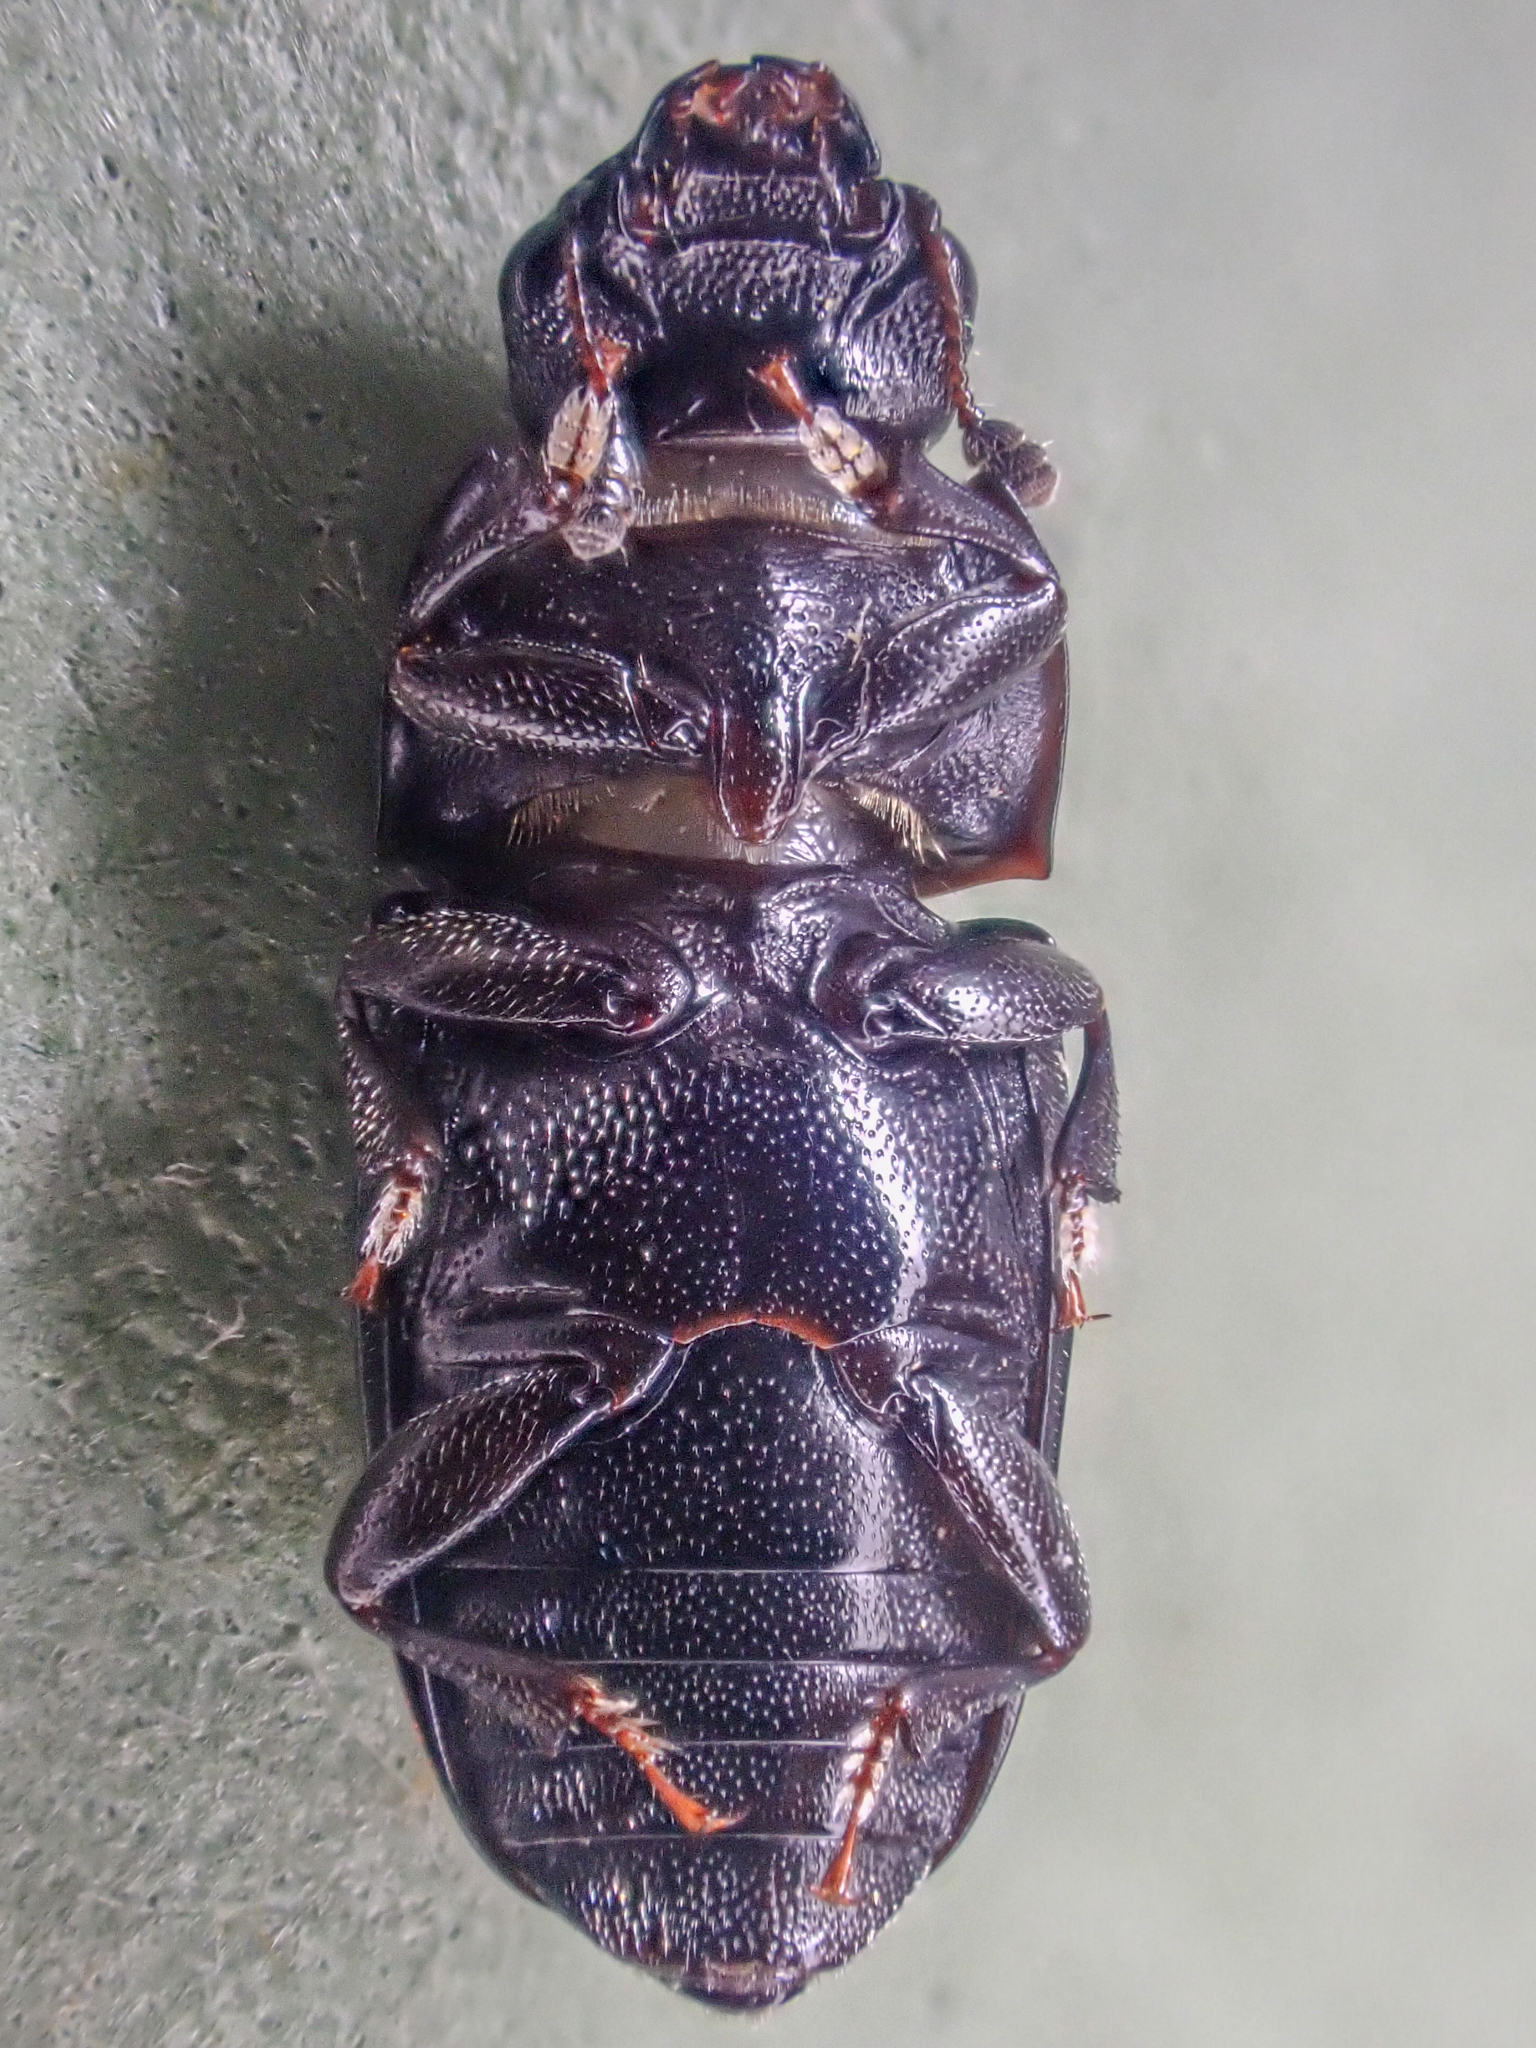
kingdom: Animalia
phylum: Arthropoda
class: Insecta
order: Coleoptera
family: Nitidulidae
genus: Glischrochilus
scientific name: Glischrochilus siepmanni
